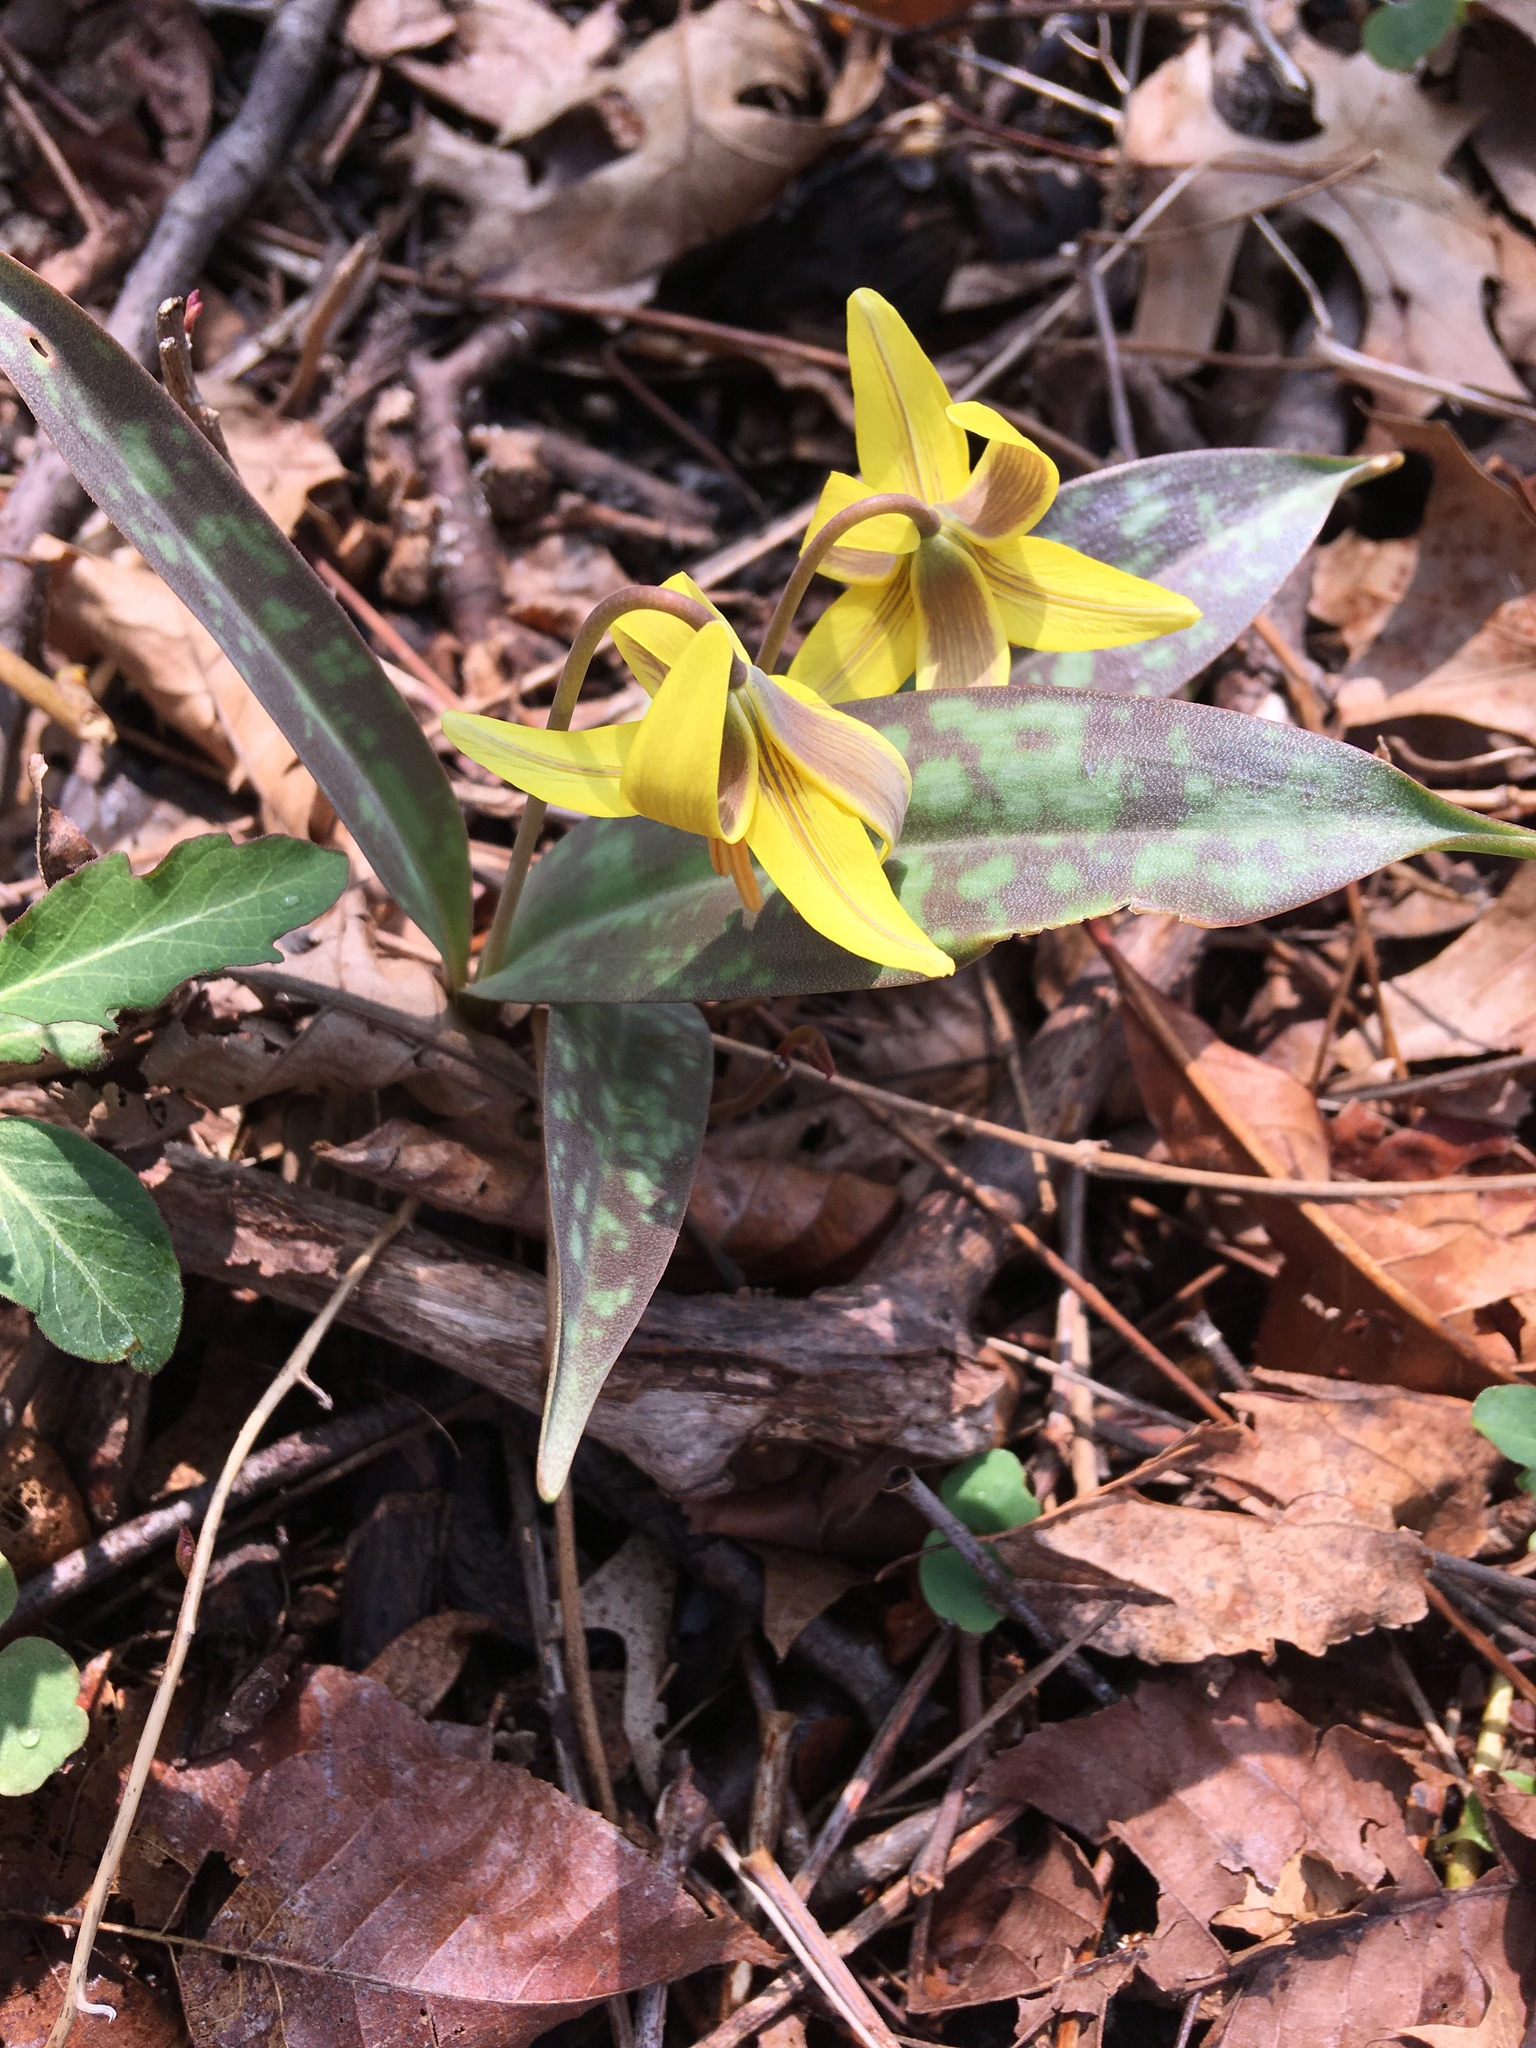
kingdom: Plantae
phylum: Tracheophyta
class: Liliopsida
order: Liliales
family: Liliaceae
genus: Erythronium
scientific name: Erythronium americanum
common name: Yellow adder's-tongue
